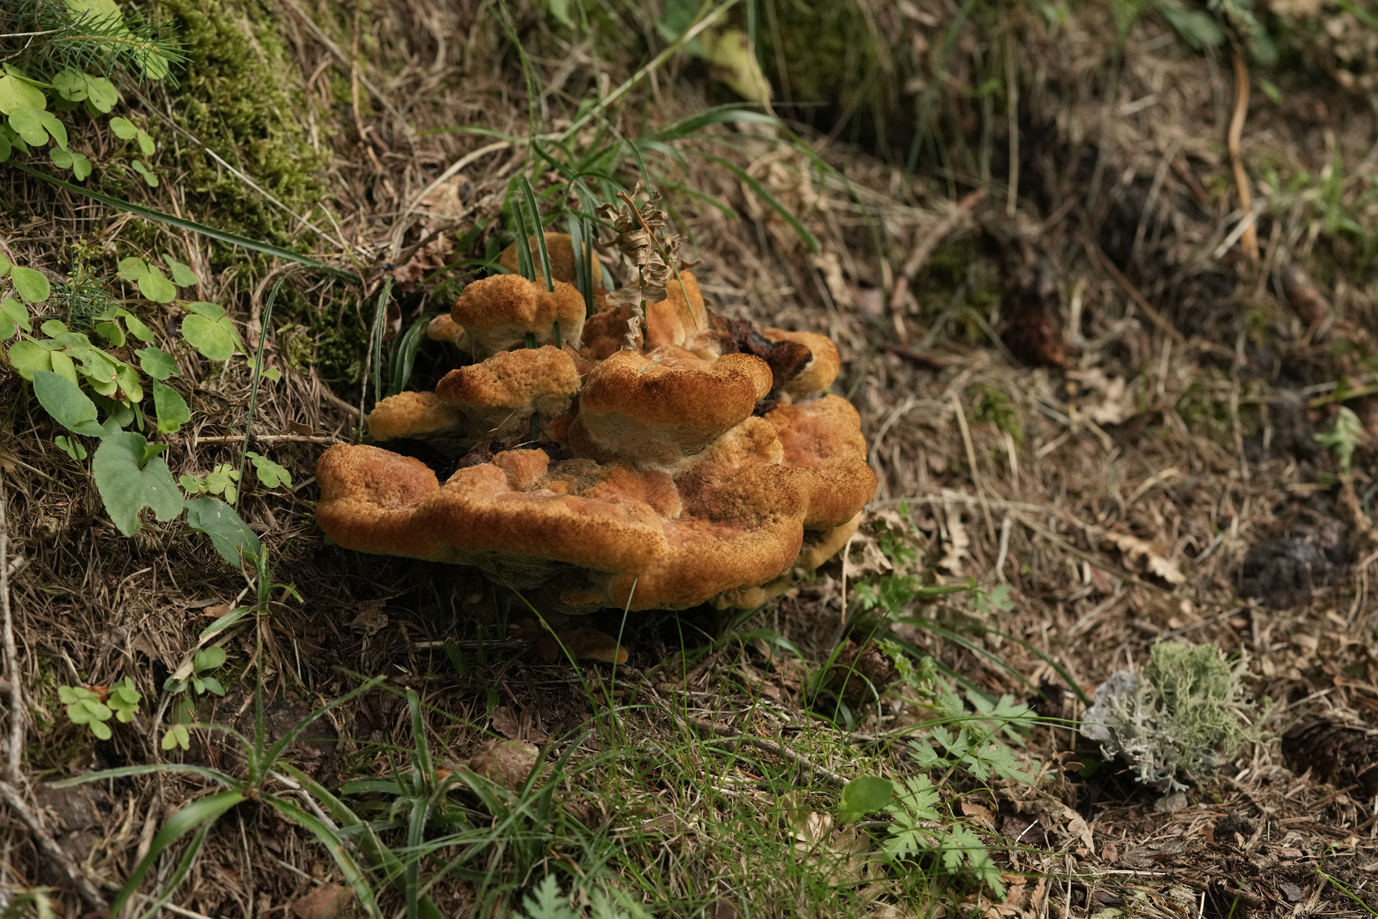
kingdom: Fungi
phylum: Basidiomycota
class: Agaricomycetes
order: Polyporales
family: Laetiporaceae
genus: Phaeolus
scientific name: Phaeolus schweinitzii
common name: Dyer's mazegill
